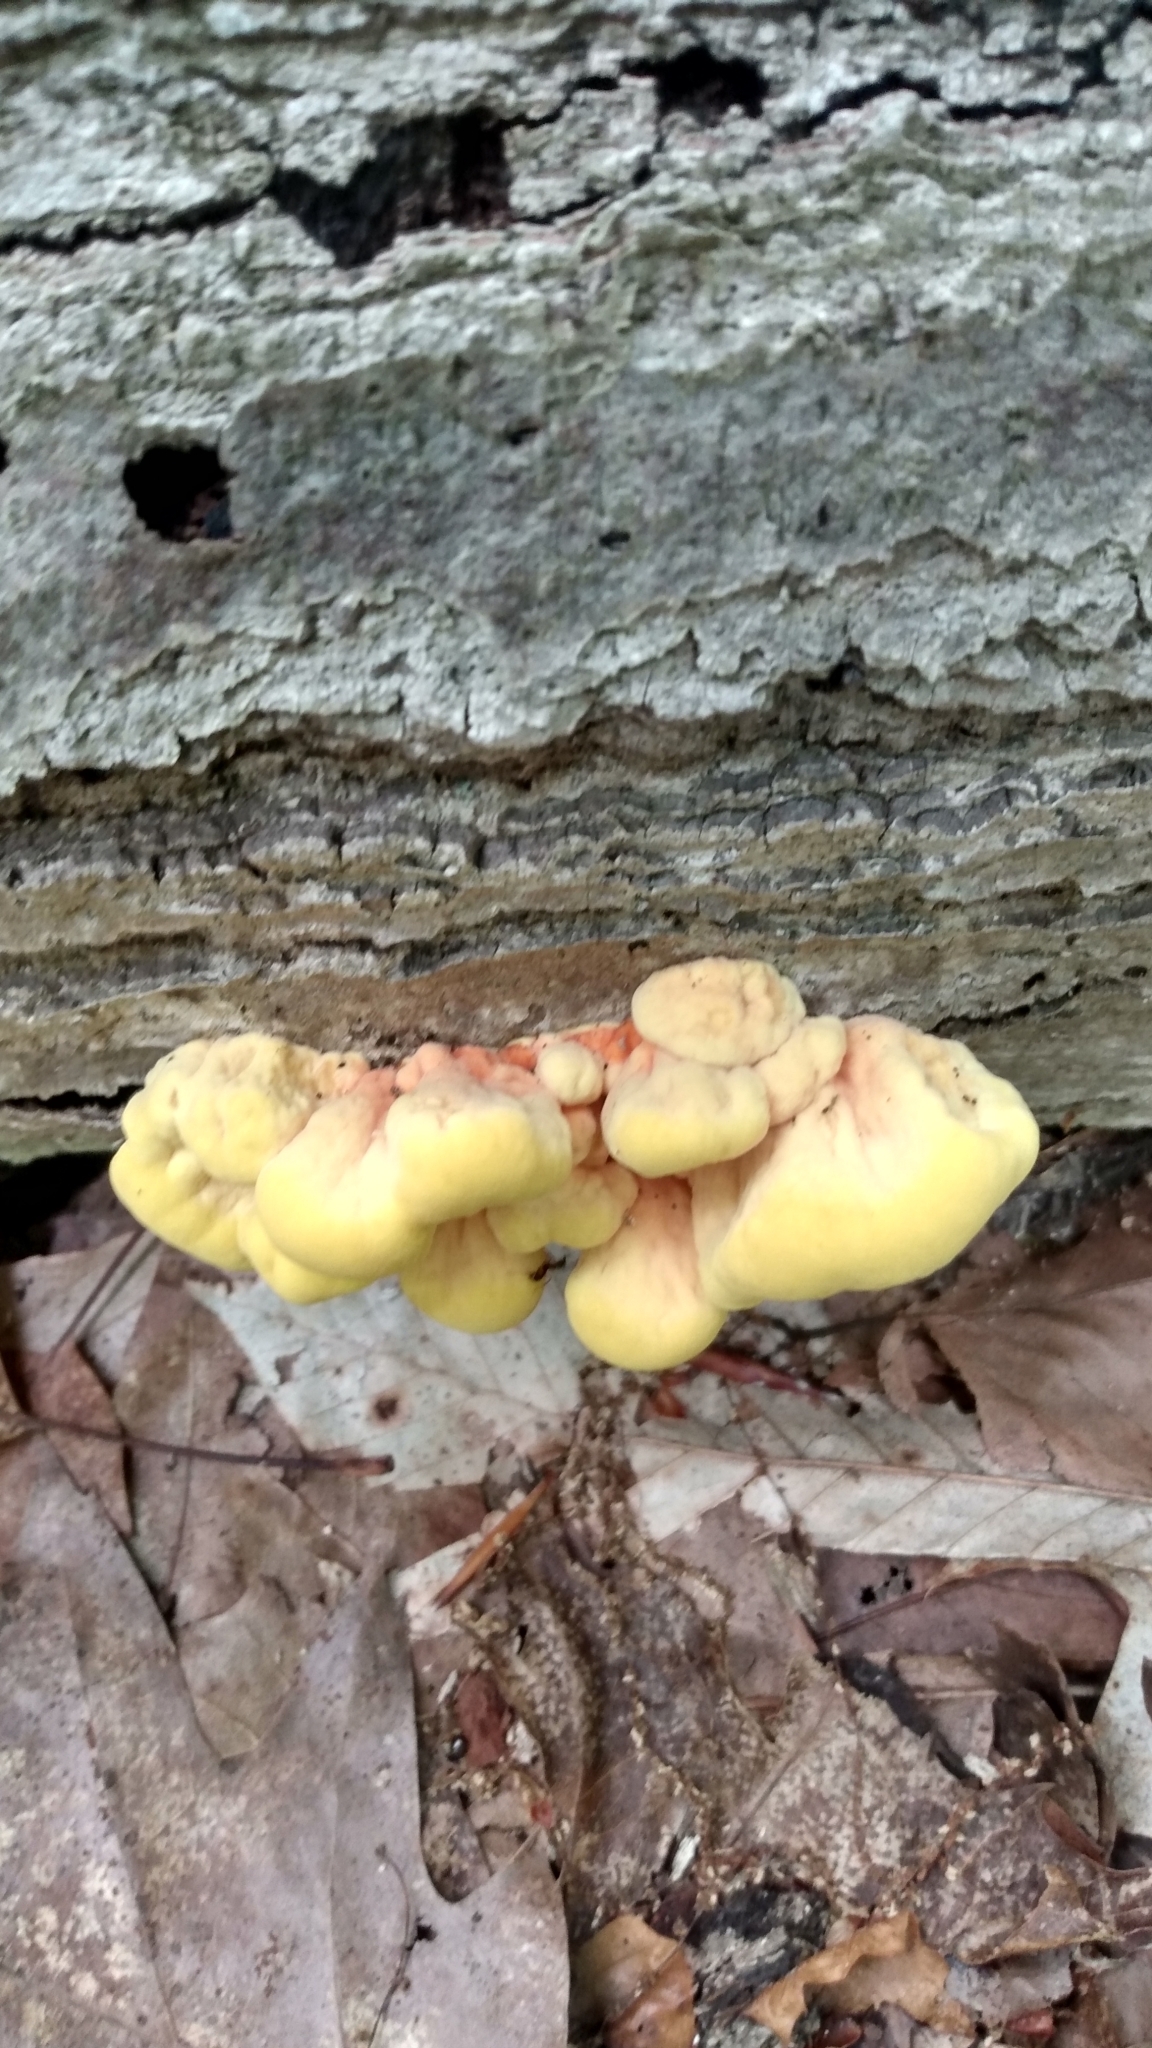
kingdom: Fungi
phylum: Basidiomycota
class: Agaricomycetes
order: Polyporales
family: Laetiporaceae
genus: Laetiporus
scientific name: Laetiporus sulphureus
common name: Chicken of the woods
